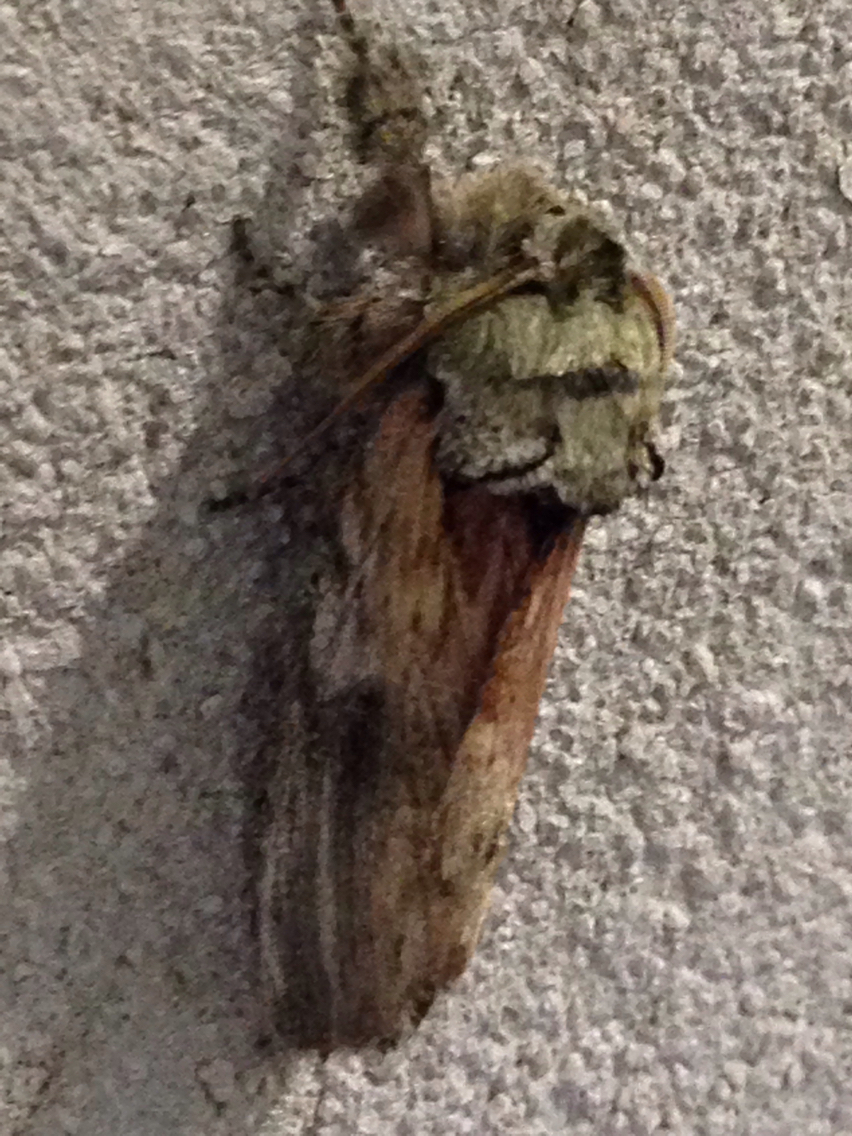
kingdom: Animalia
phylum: Arthropoda
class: Insecta
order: Lepidoptera
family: Notodontidae
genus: Schizura
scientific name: Schizura
